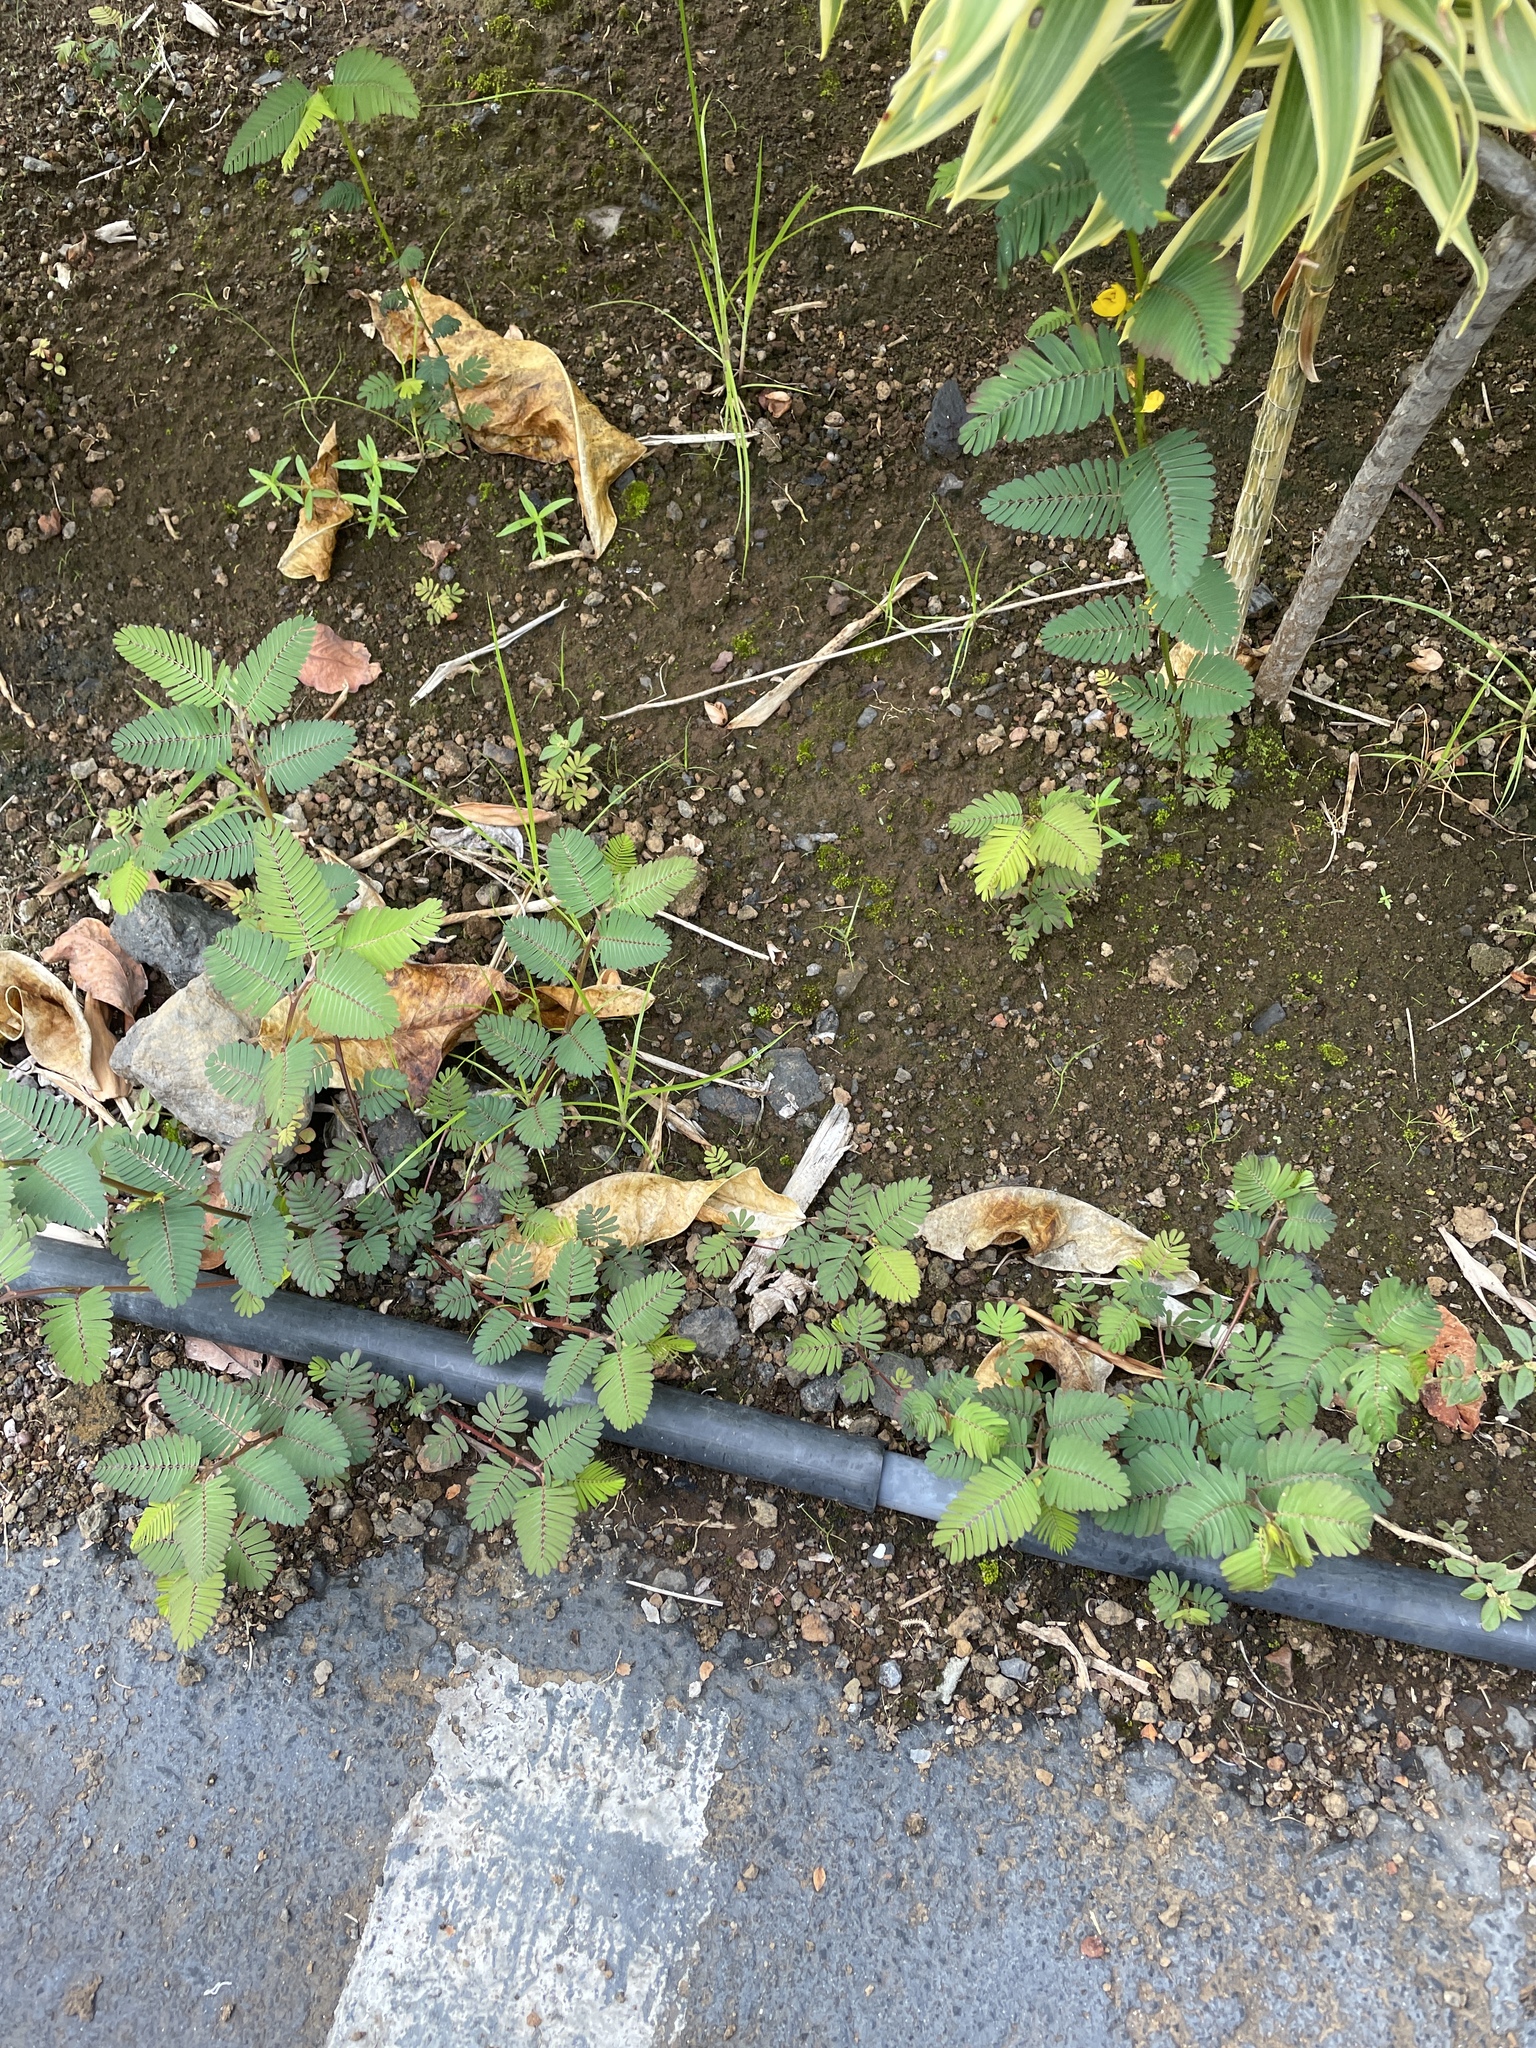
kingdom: Plantae
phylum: Tracheophyta
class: Magnoliopsida
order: Fabales
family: Fabaceae
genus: Chamaecrista
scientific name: Chamaecrista nictitans
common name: Sensitive cassia
